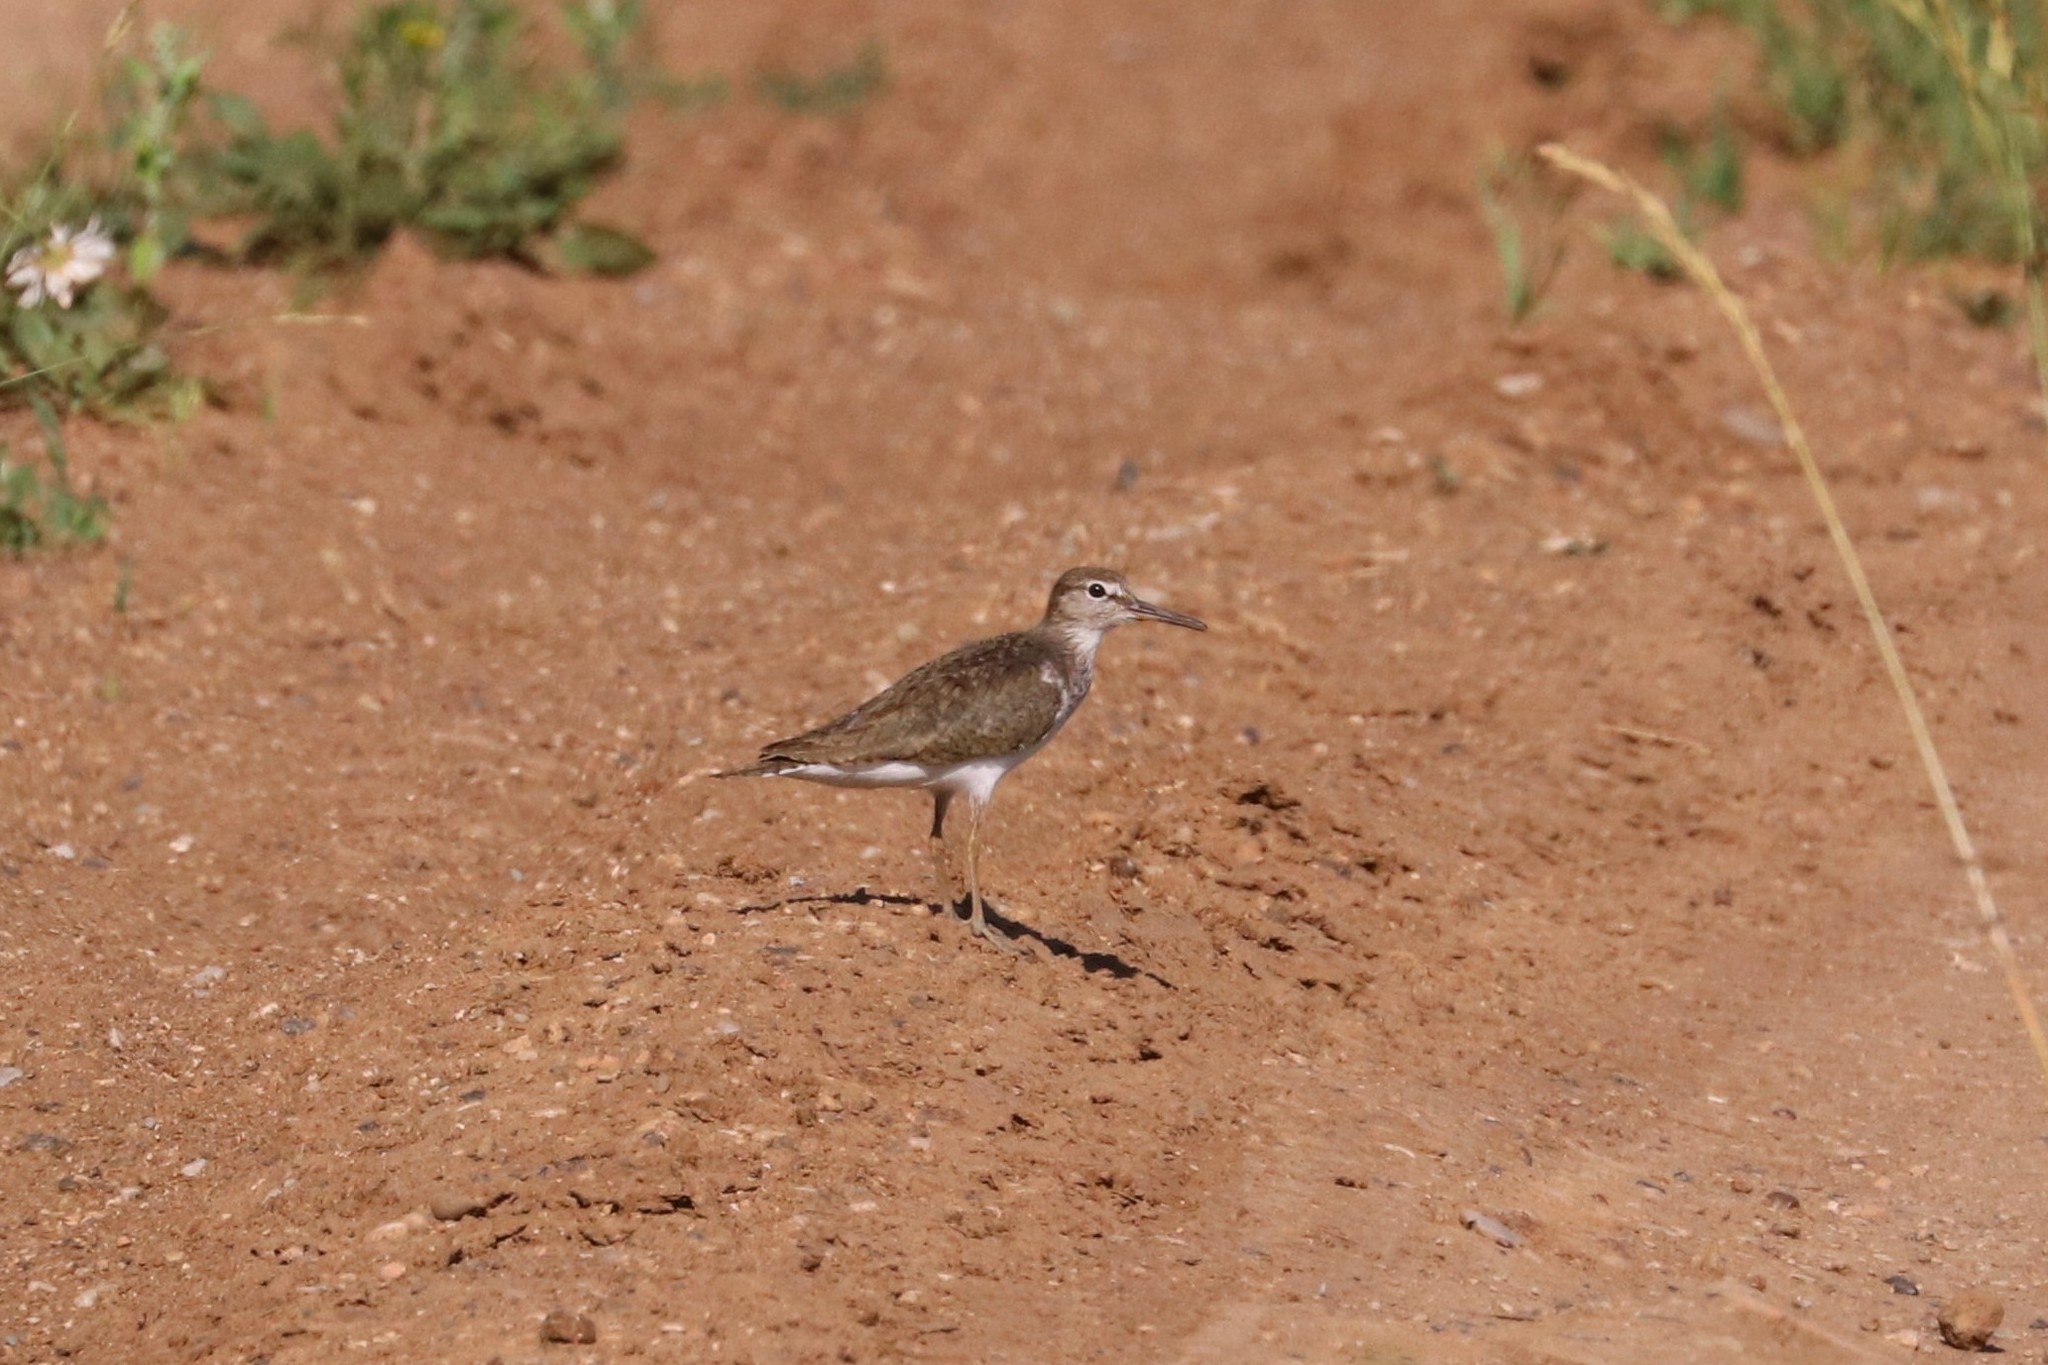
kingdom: Animalia
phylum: Chordata
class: Aves
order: Charadriiformes
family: Scolopacidae
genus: Actitis
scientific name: Actitis hypoleucos
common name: Common sandpiper
